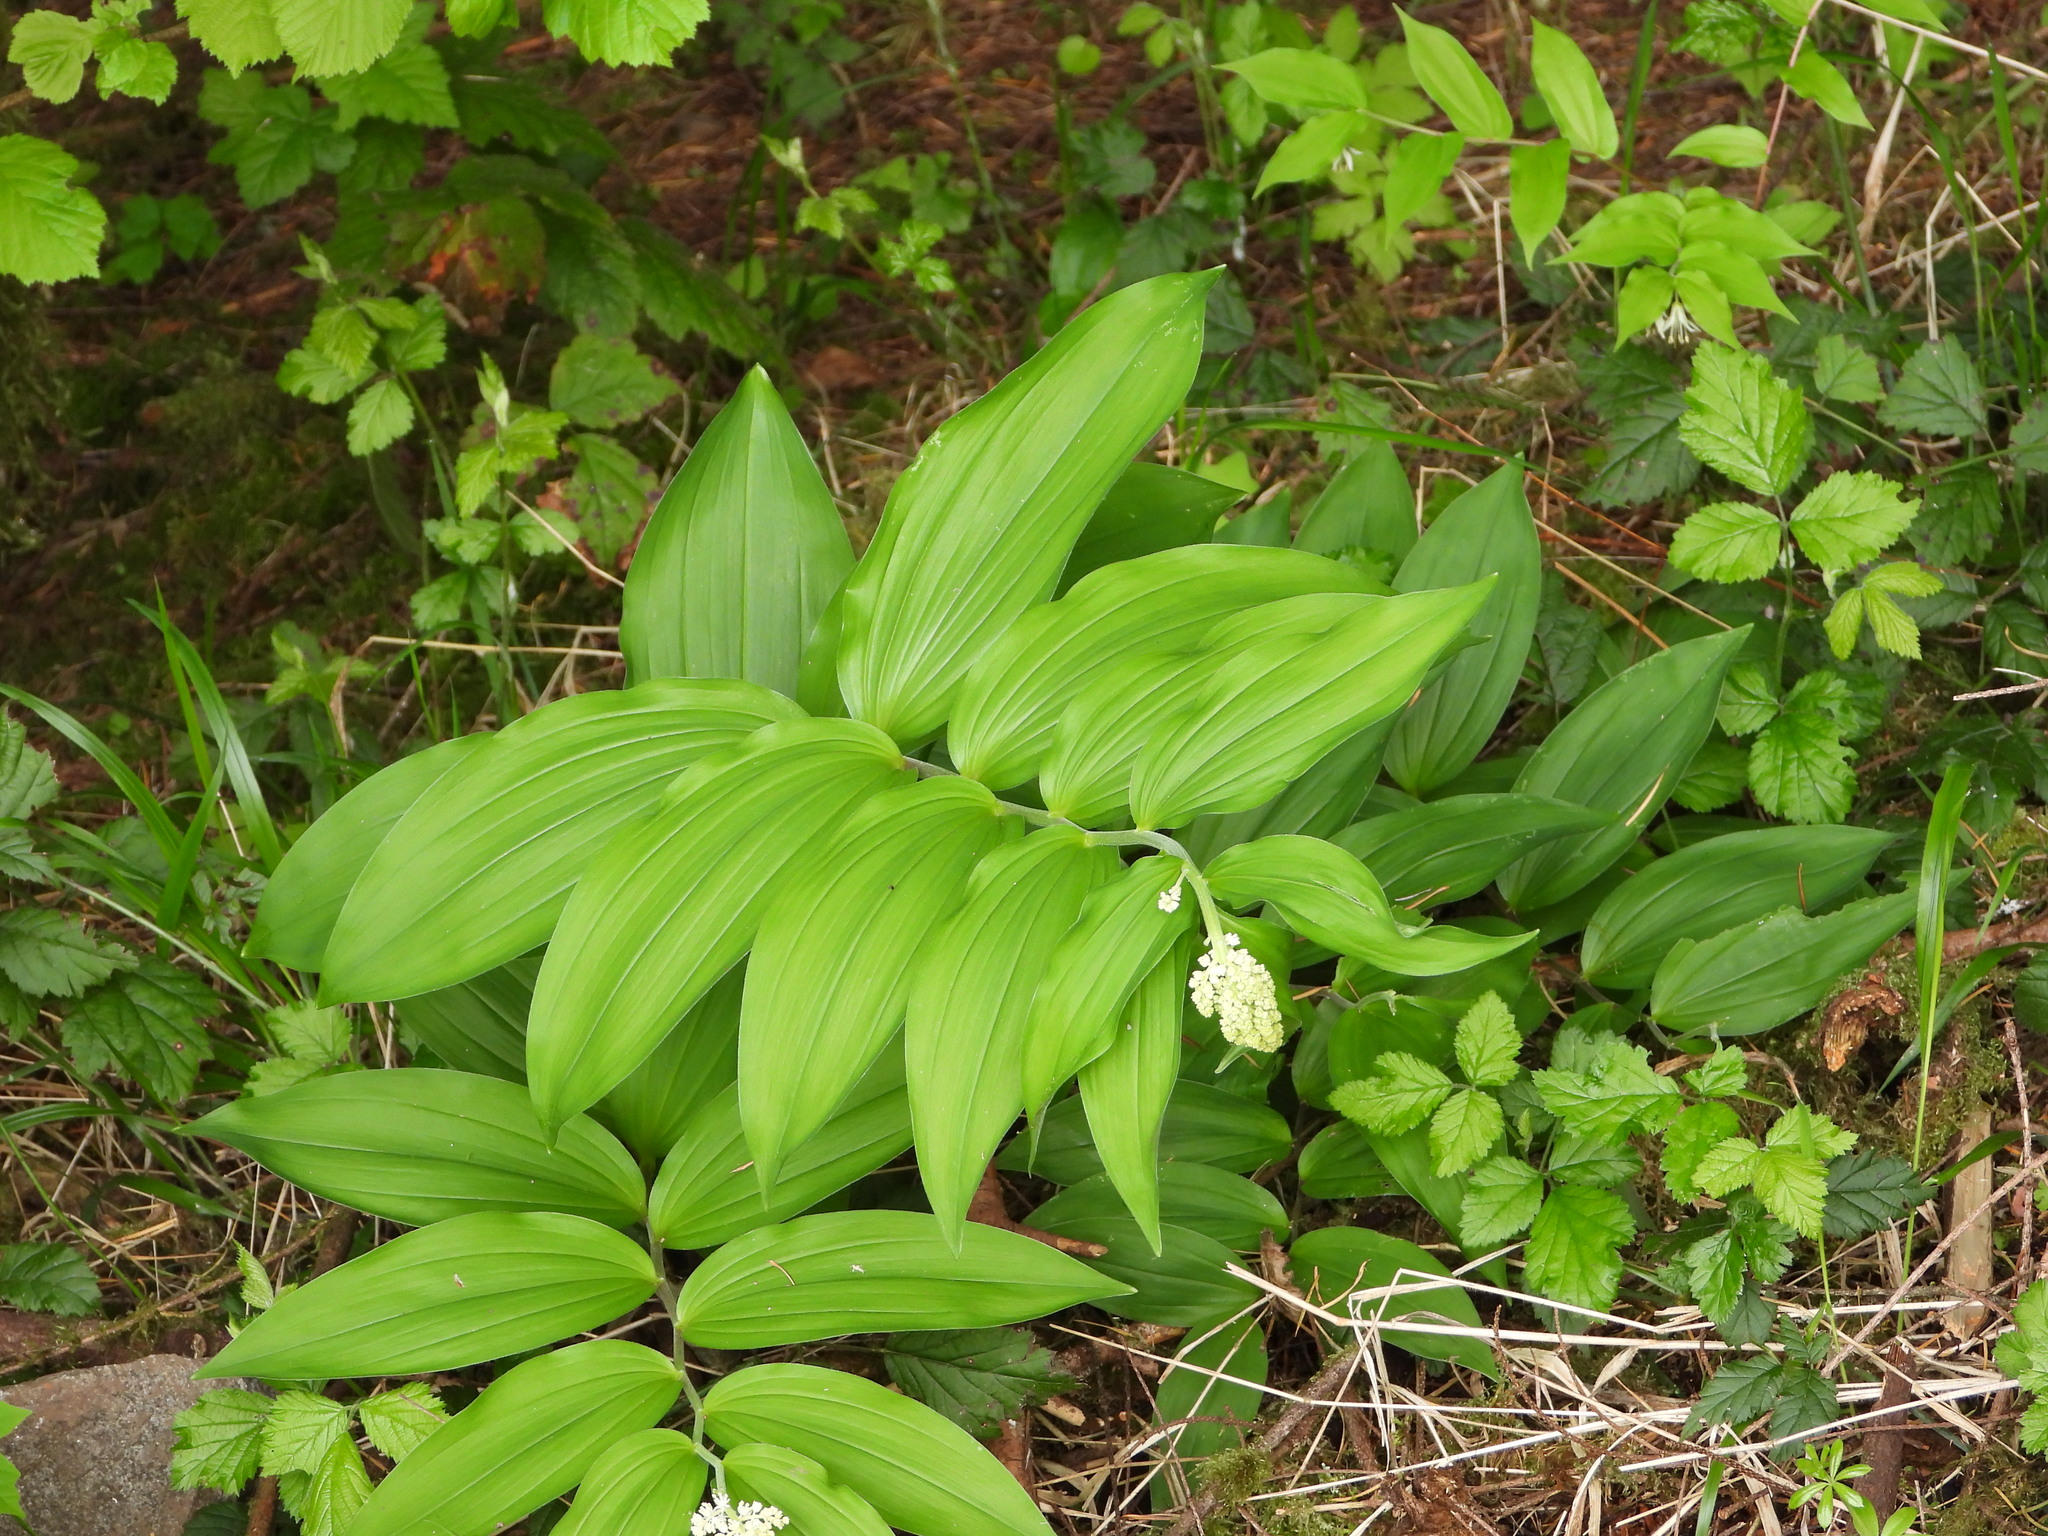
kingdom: Plantae
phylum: Tracheophyta
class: Liliopsida
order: Asparagales
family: Asparagaceae
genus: Maianthemum
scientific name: Maianthemum racemosum
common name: False spikenard
